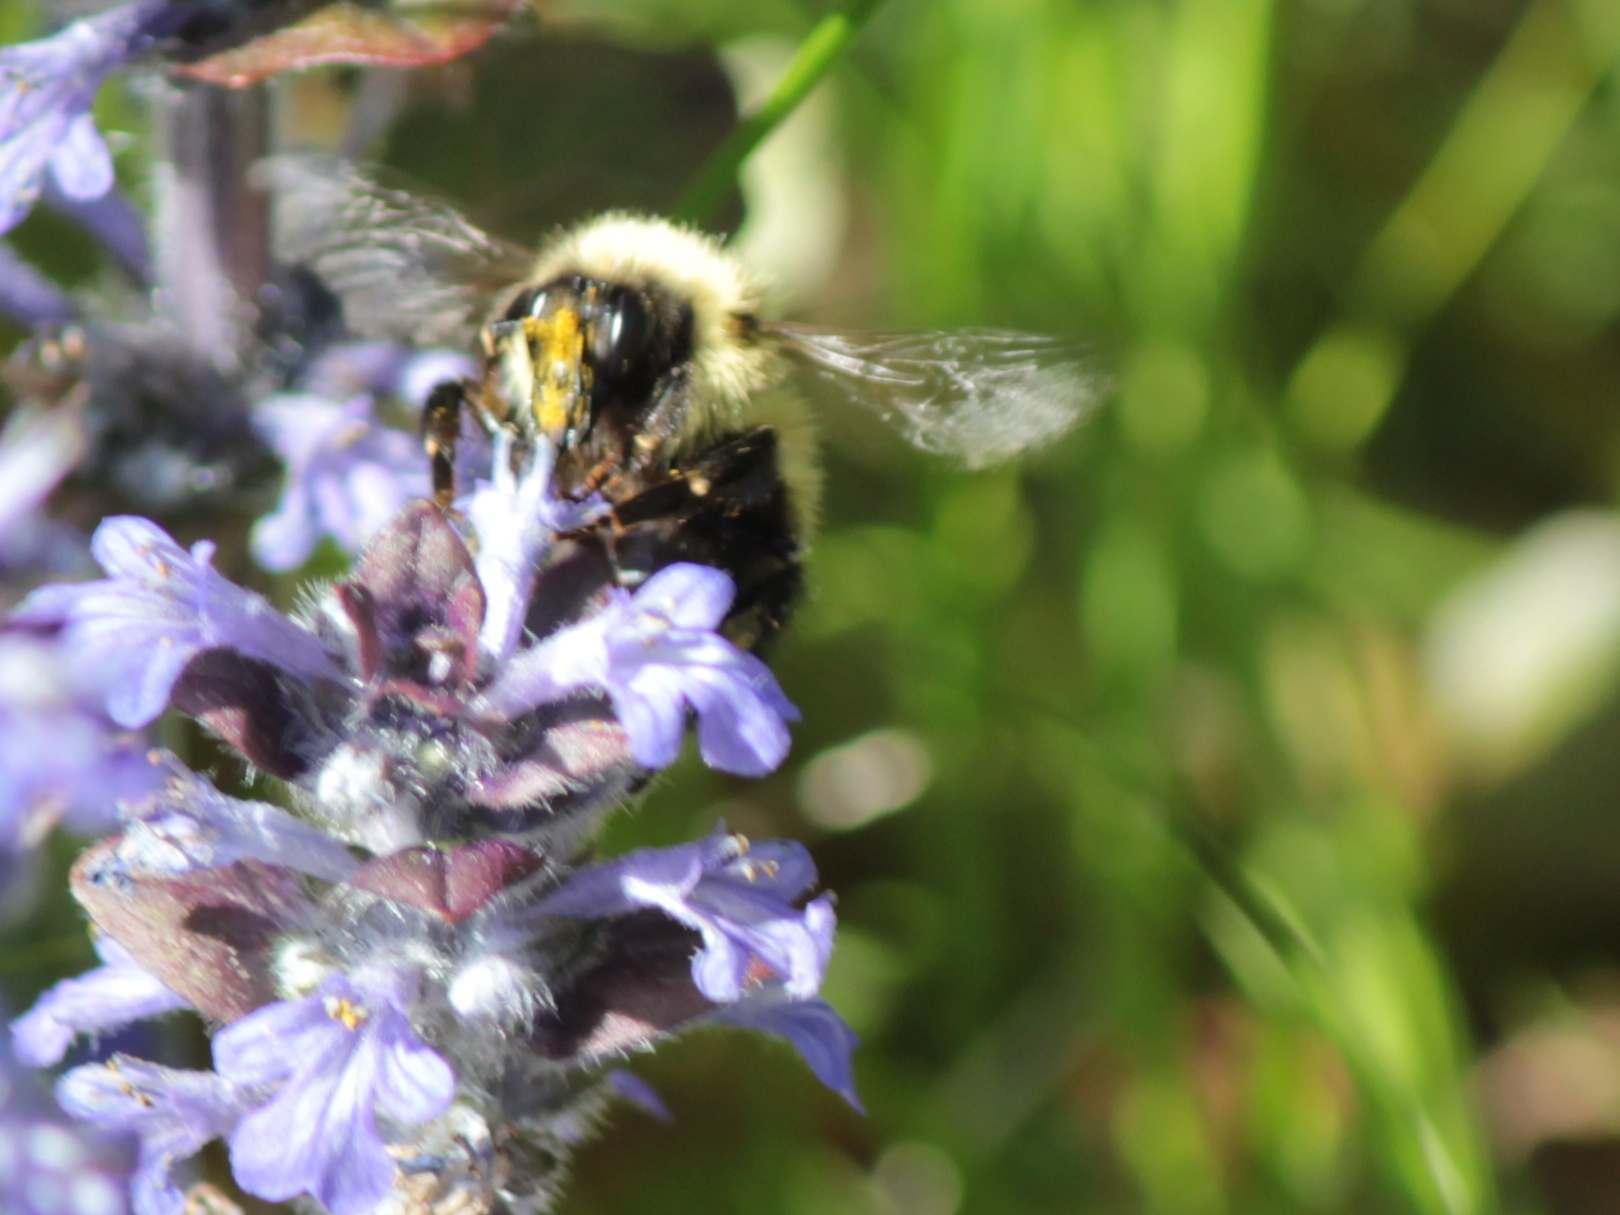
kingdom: Animalia
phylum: Arthropoda
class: Insecta
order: Hymenoptera
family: Apidae
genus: Pyrobombus
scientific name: Pyrobombus
